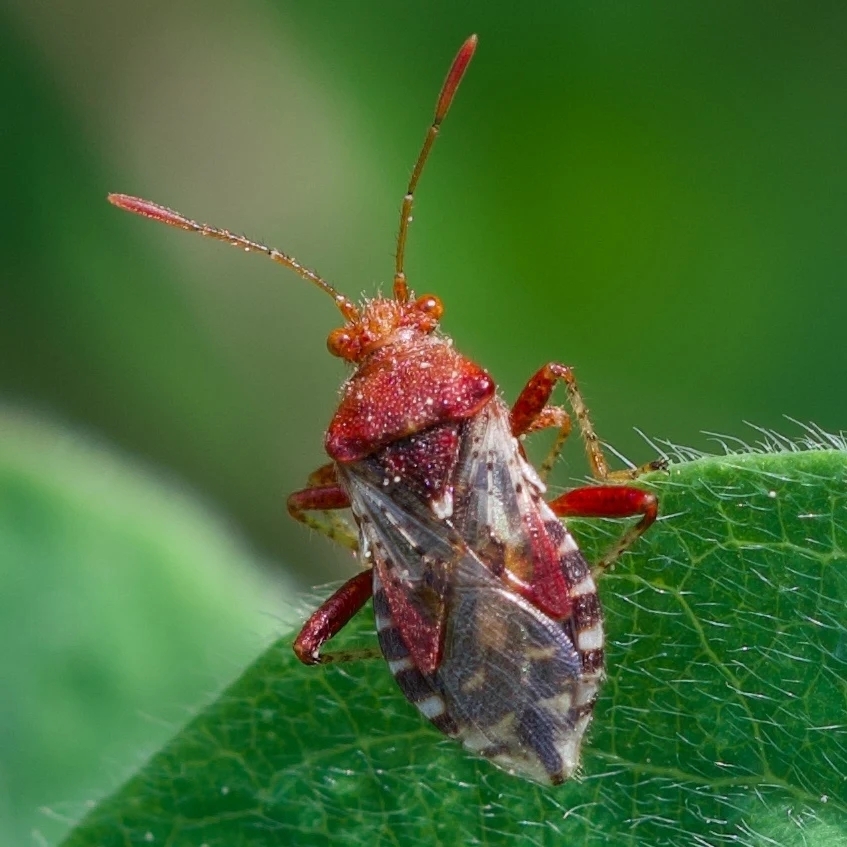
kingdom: Animalia
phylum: Arthropoda
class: Insecta
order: Hemiptera
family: Rhopalidae
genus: Rhopalus
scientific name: Rhopalus subrufus
